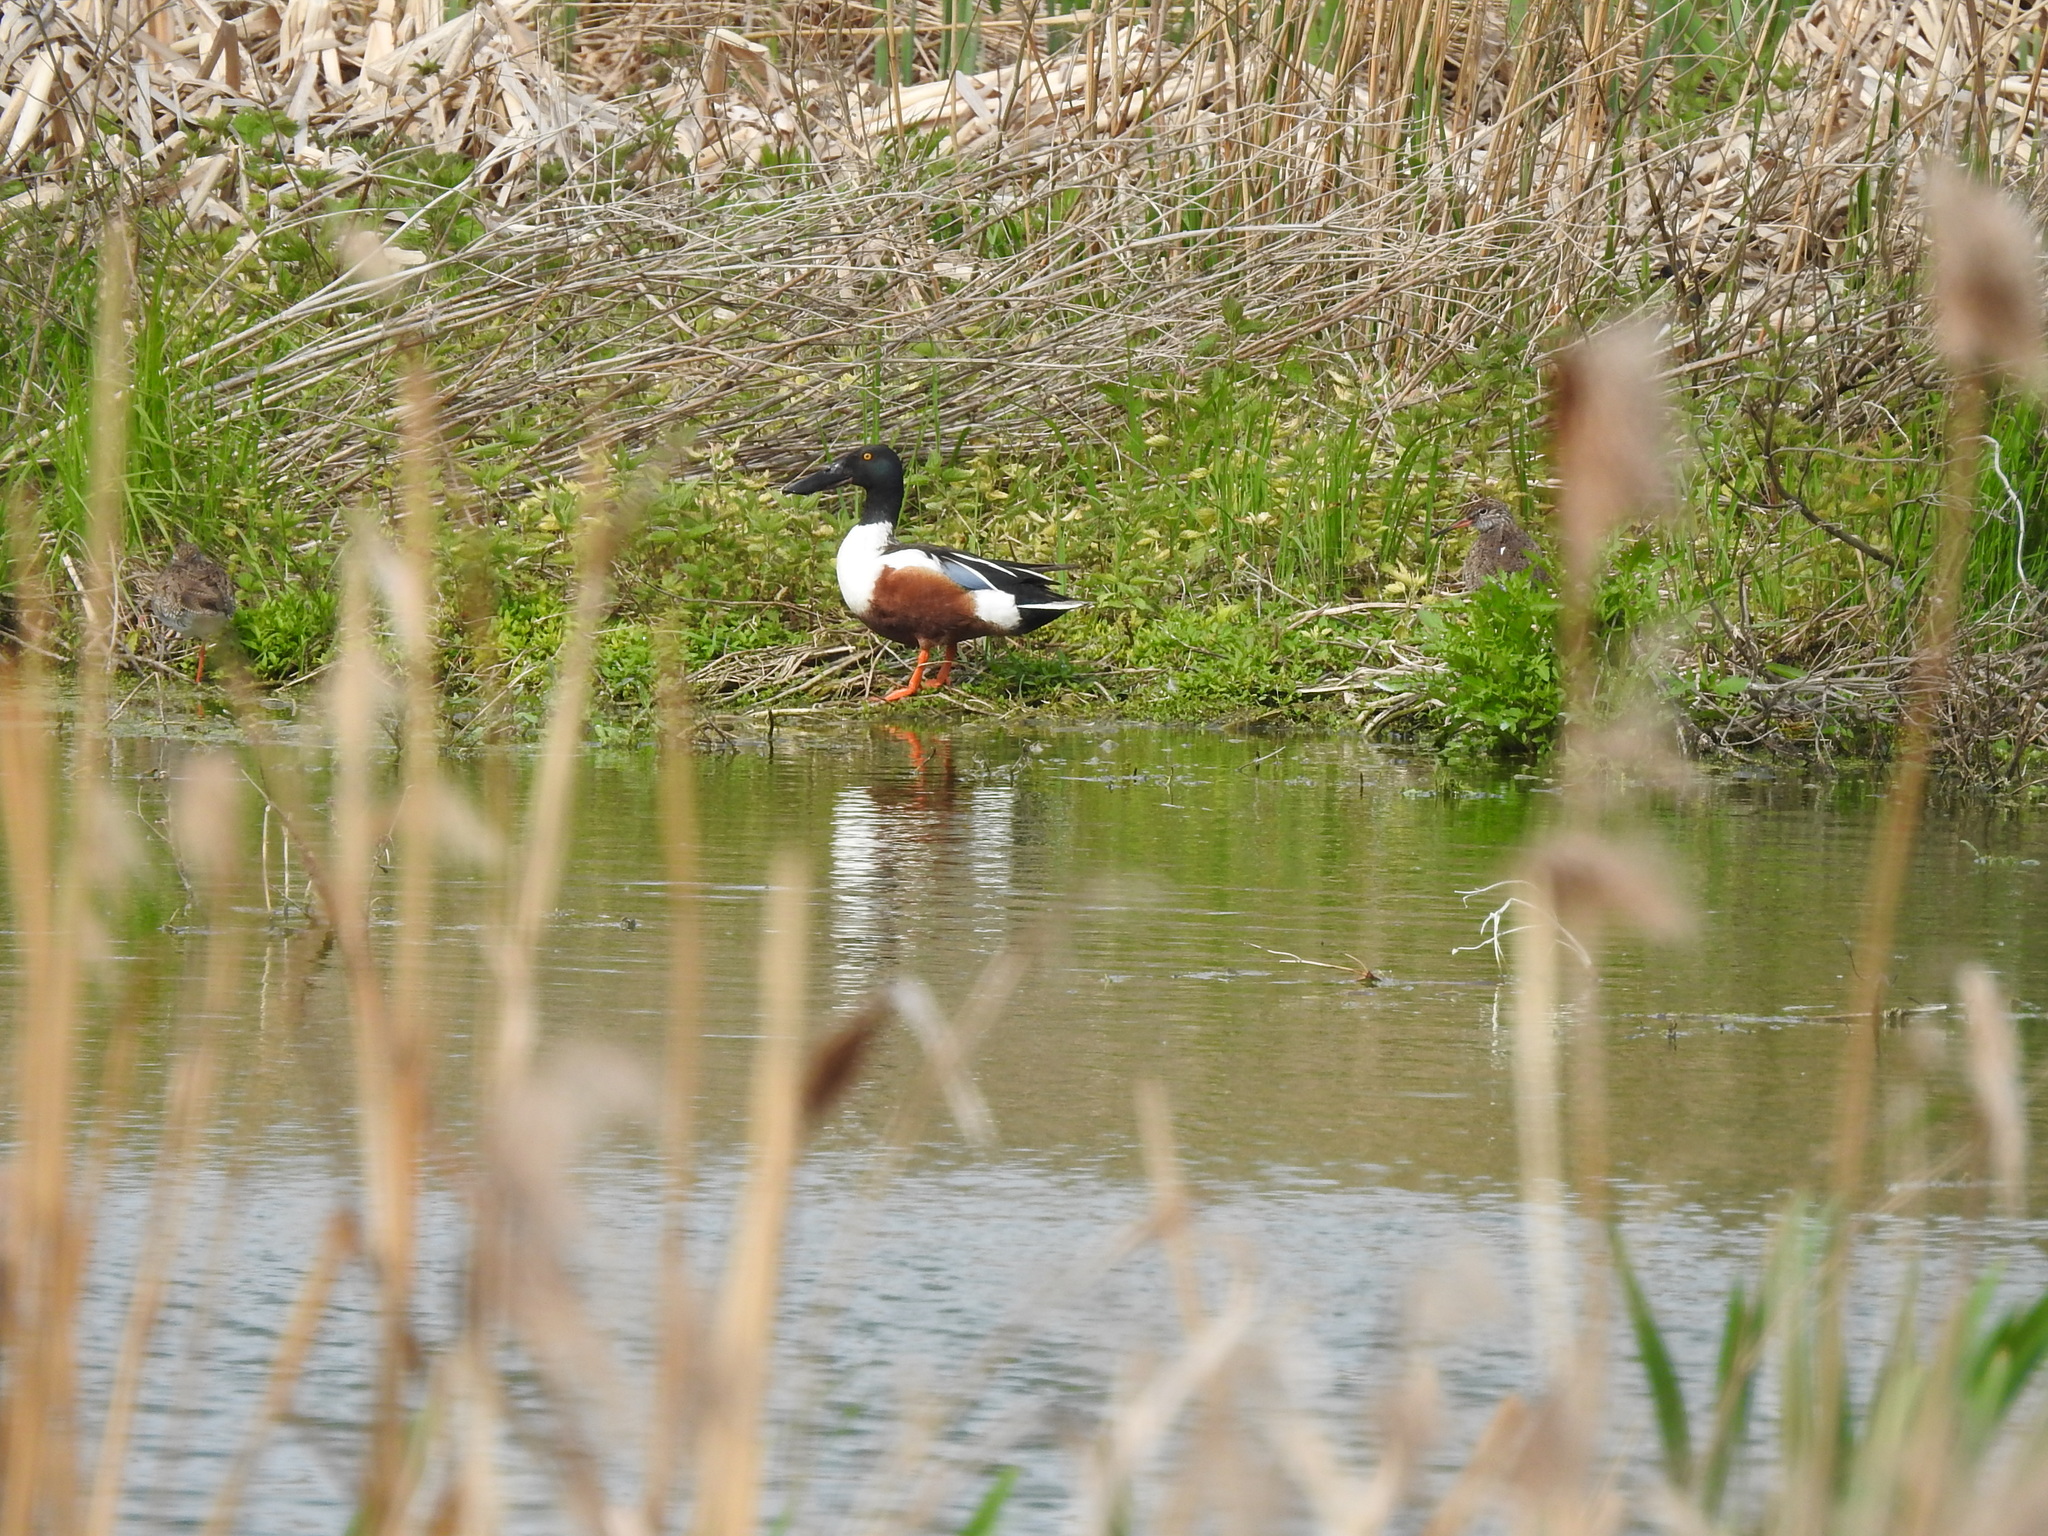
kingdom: Animalia
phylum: Chordata
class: Aves
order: Anseriformes
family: Anatidae
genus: Spatula
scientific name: Spatula clypeata
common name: Northern shoveler
